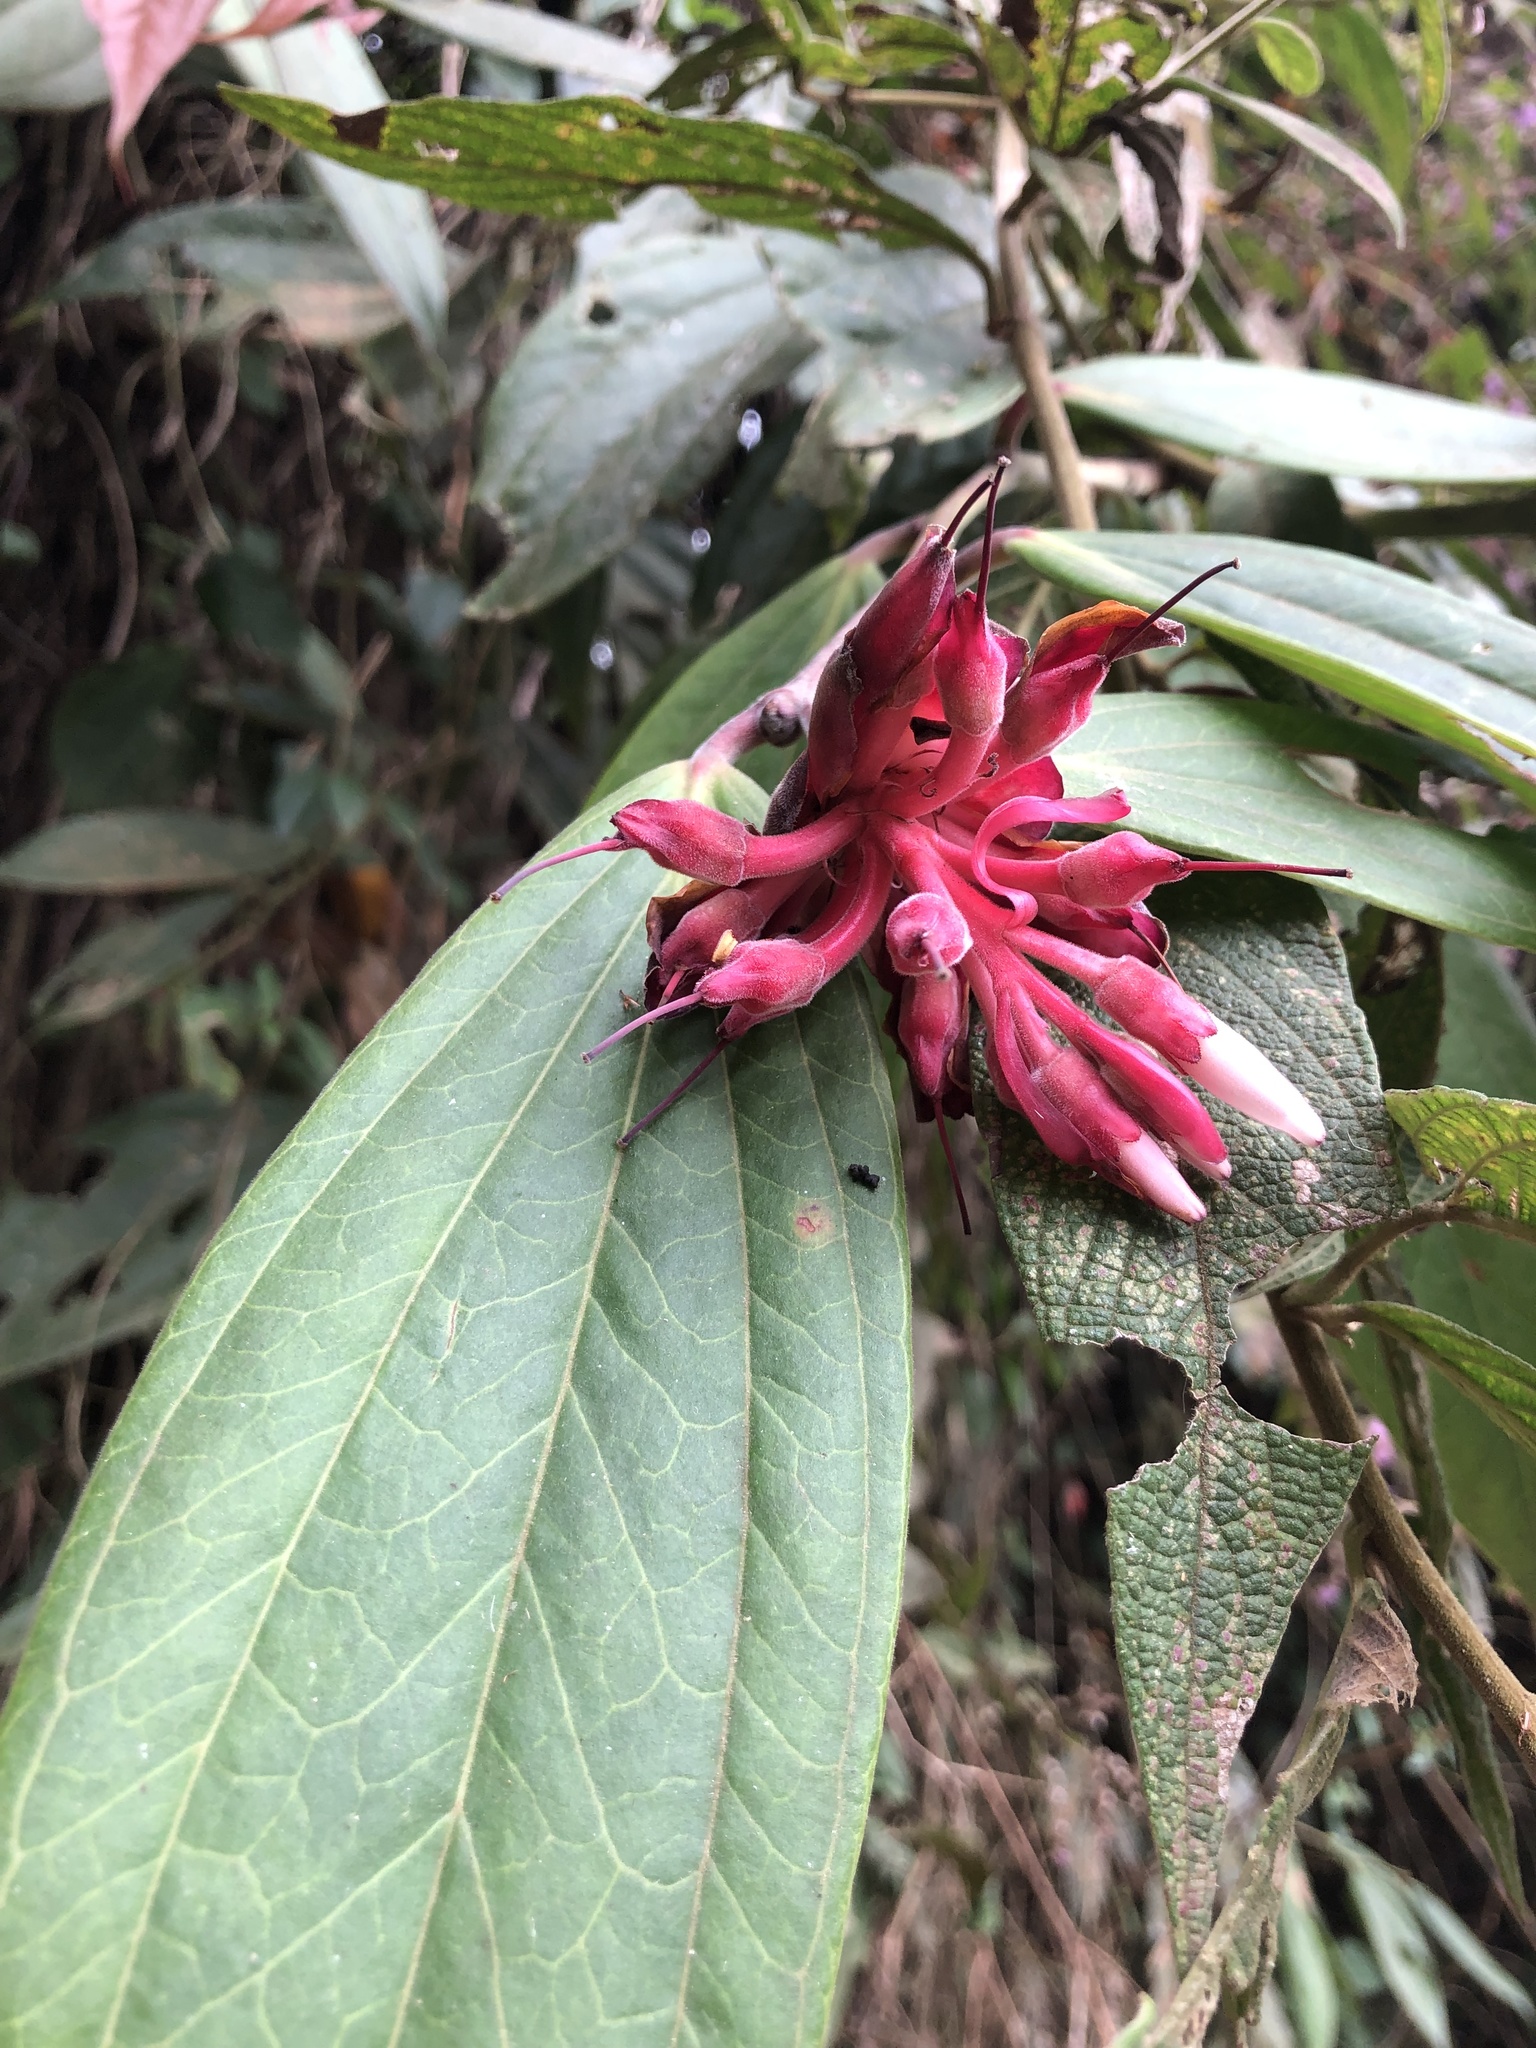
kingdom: Plantae
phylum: Tracheophyta
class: Magnoliopsida
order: Ericales
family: Ericaceae
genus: Cavendishia
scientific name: Cavendishia pubescens
